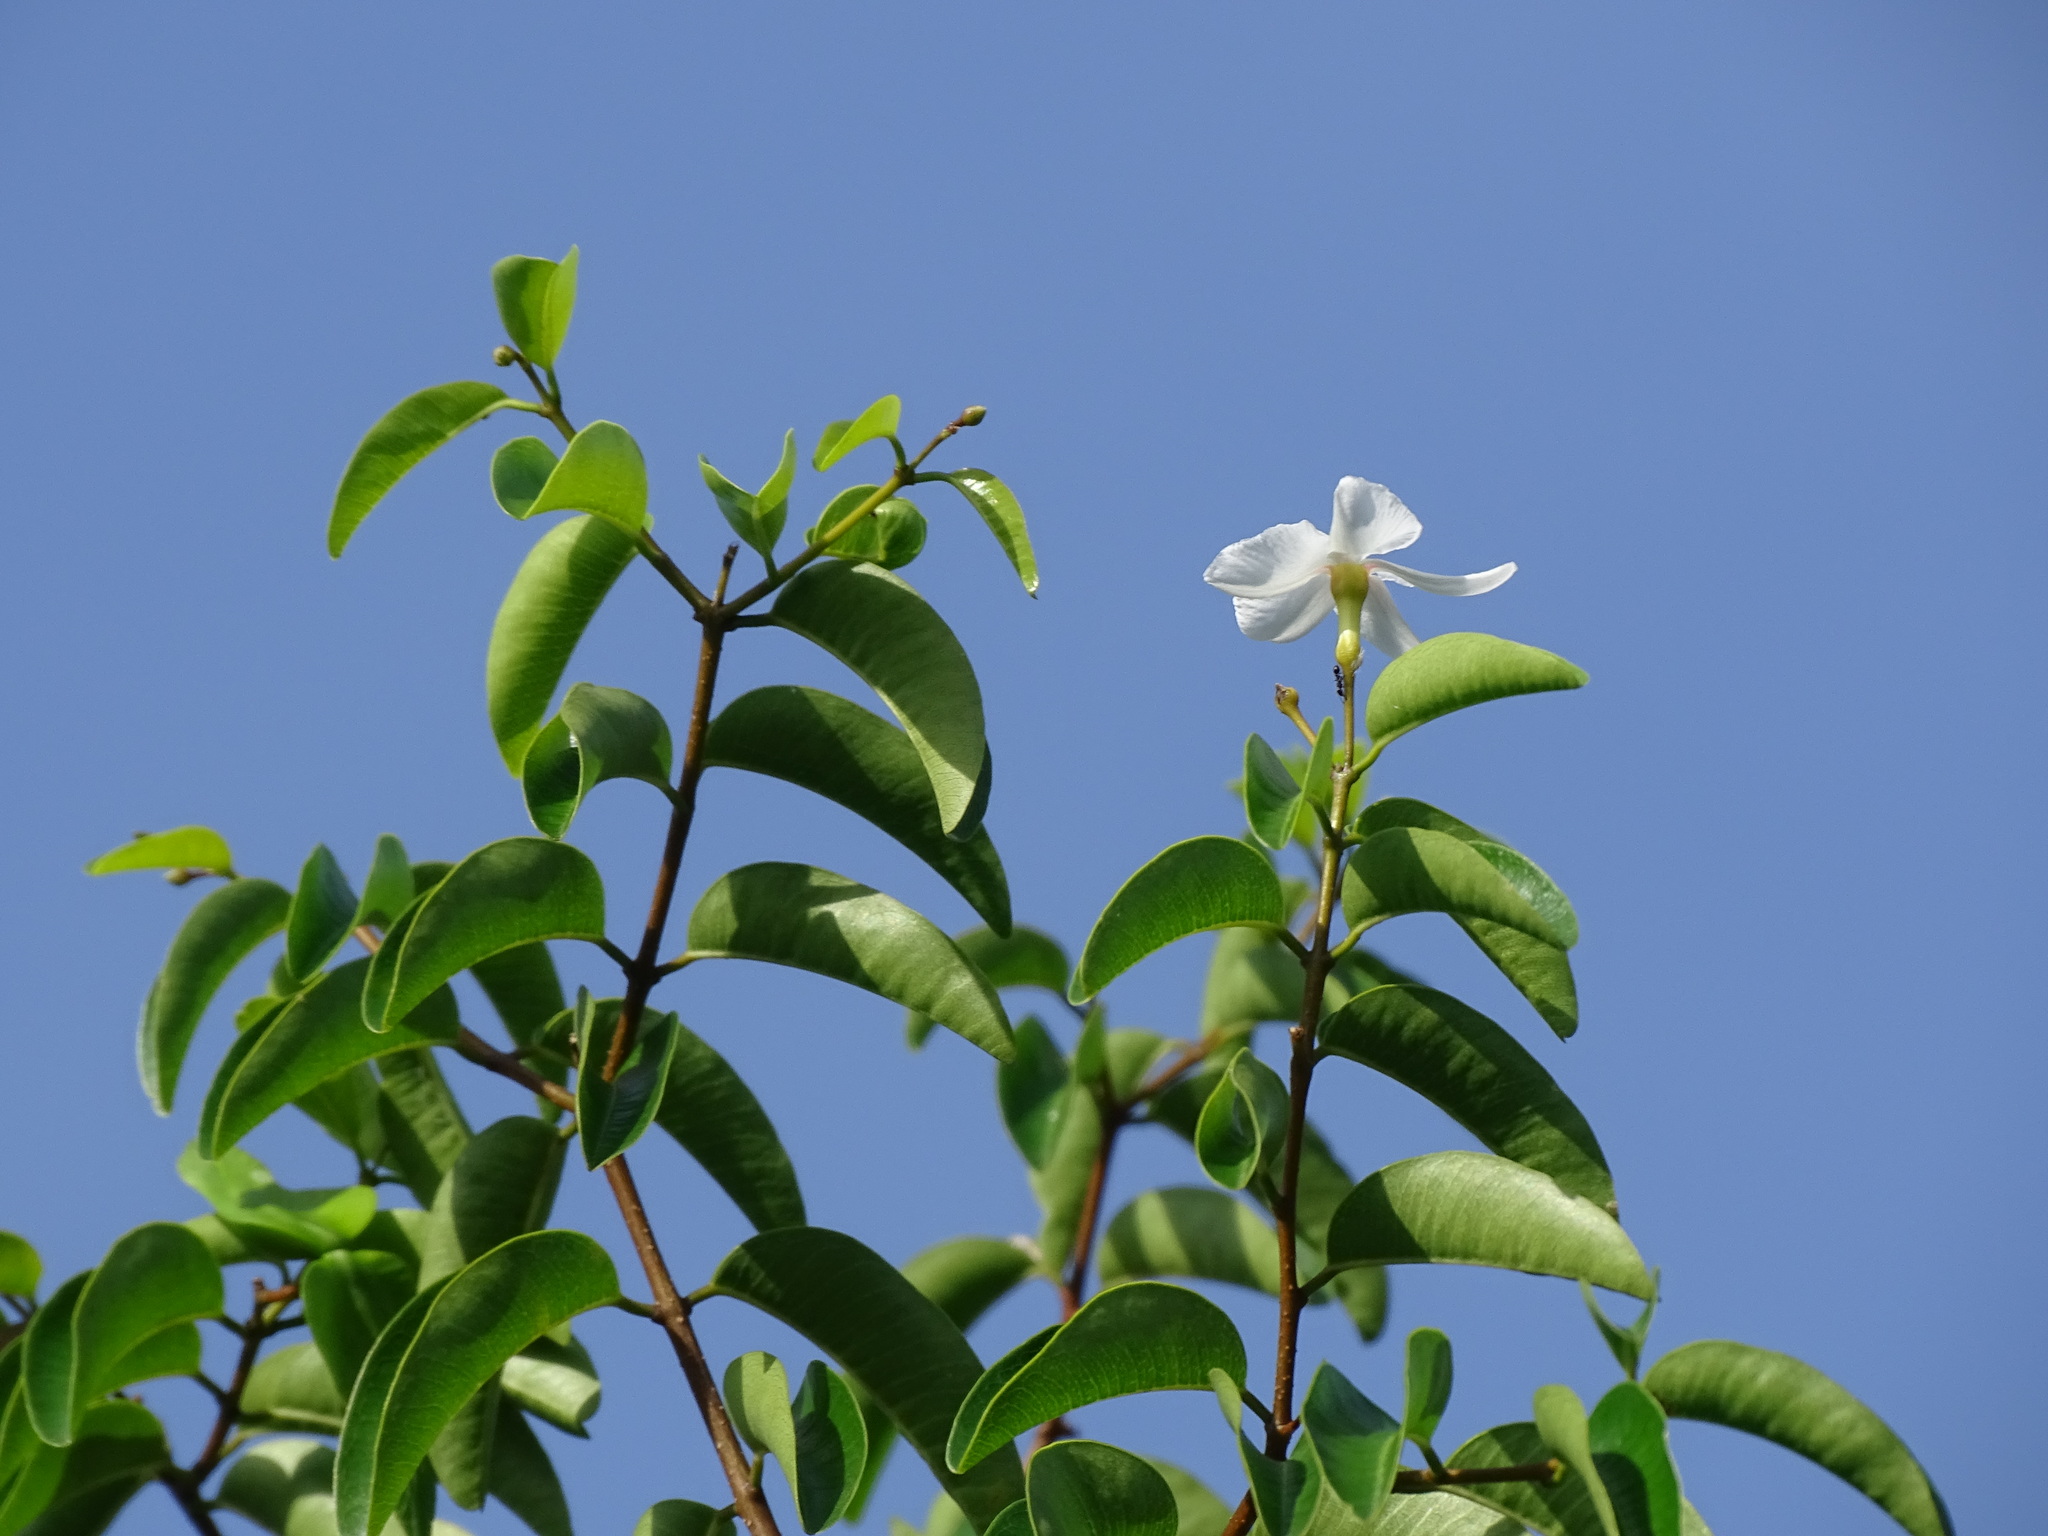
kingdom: Plantae
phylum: Tracheophyta
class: Magnoliopsida
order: Gentianales
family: Apocynaceae
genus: Cameraria
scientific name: Cameraria latifolia
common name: Savanna white poisonwood
